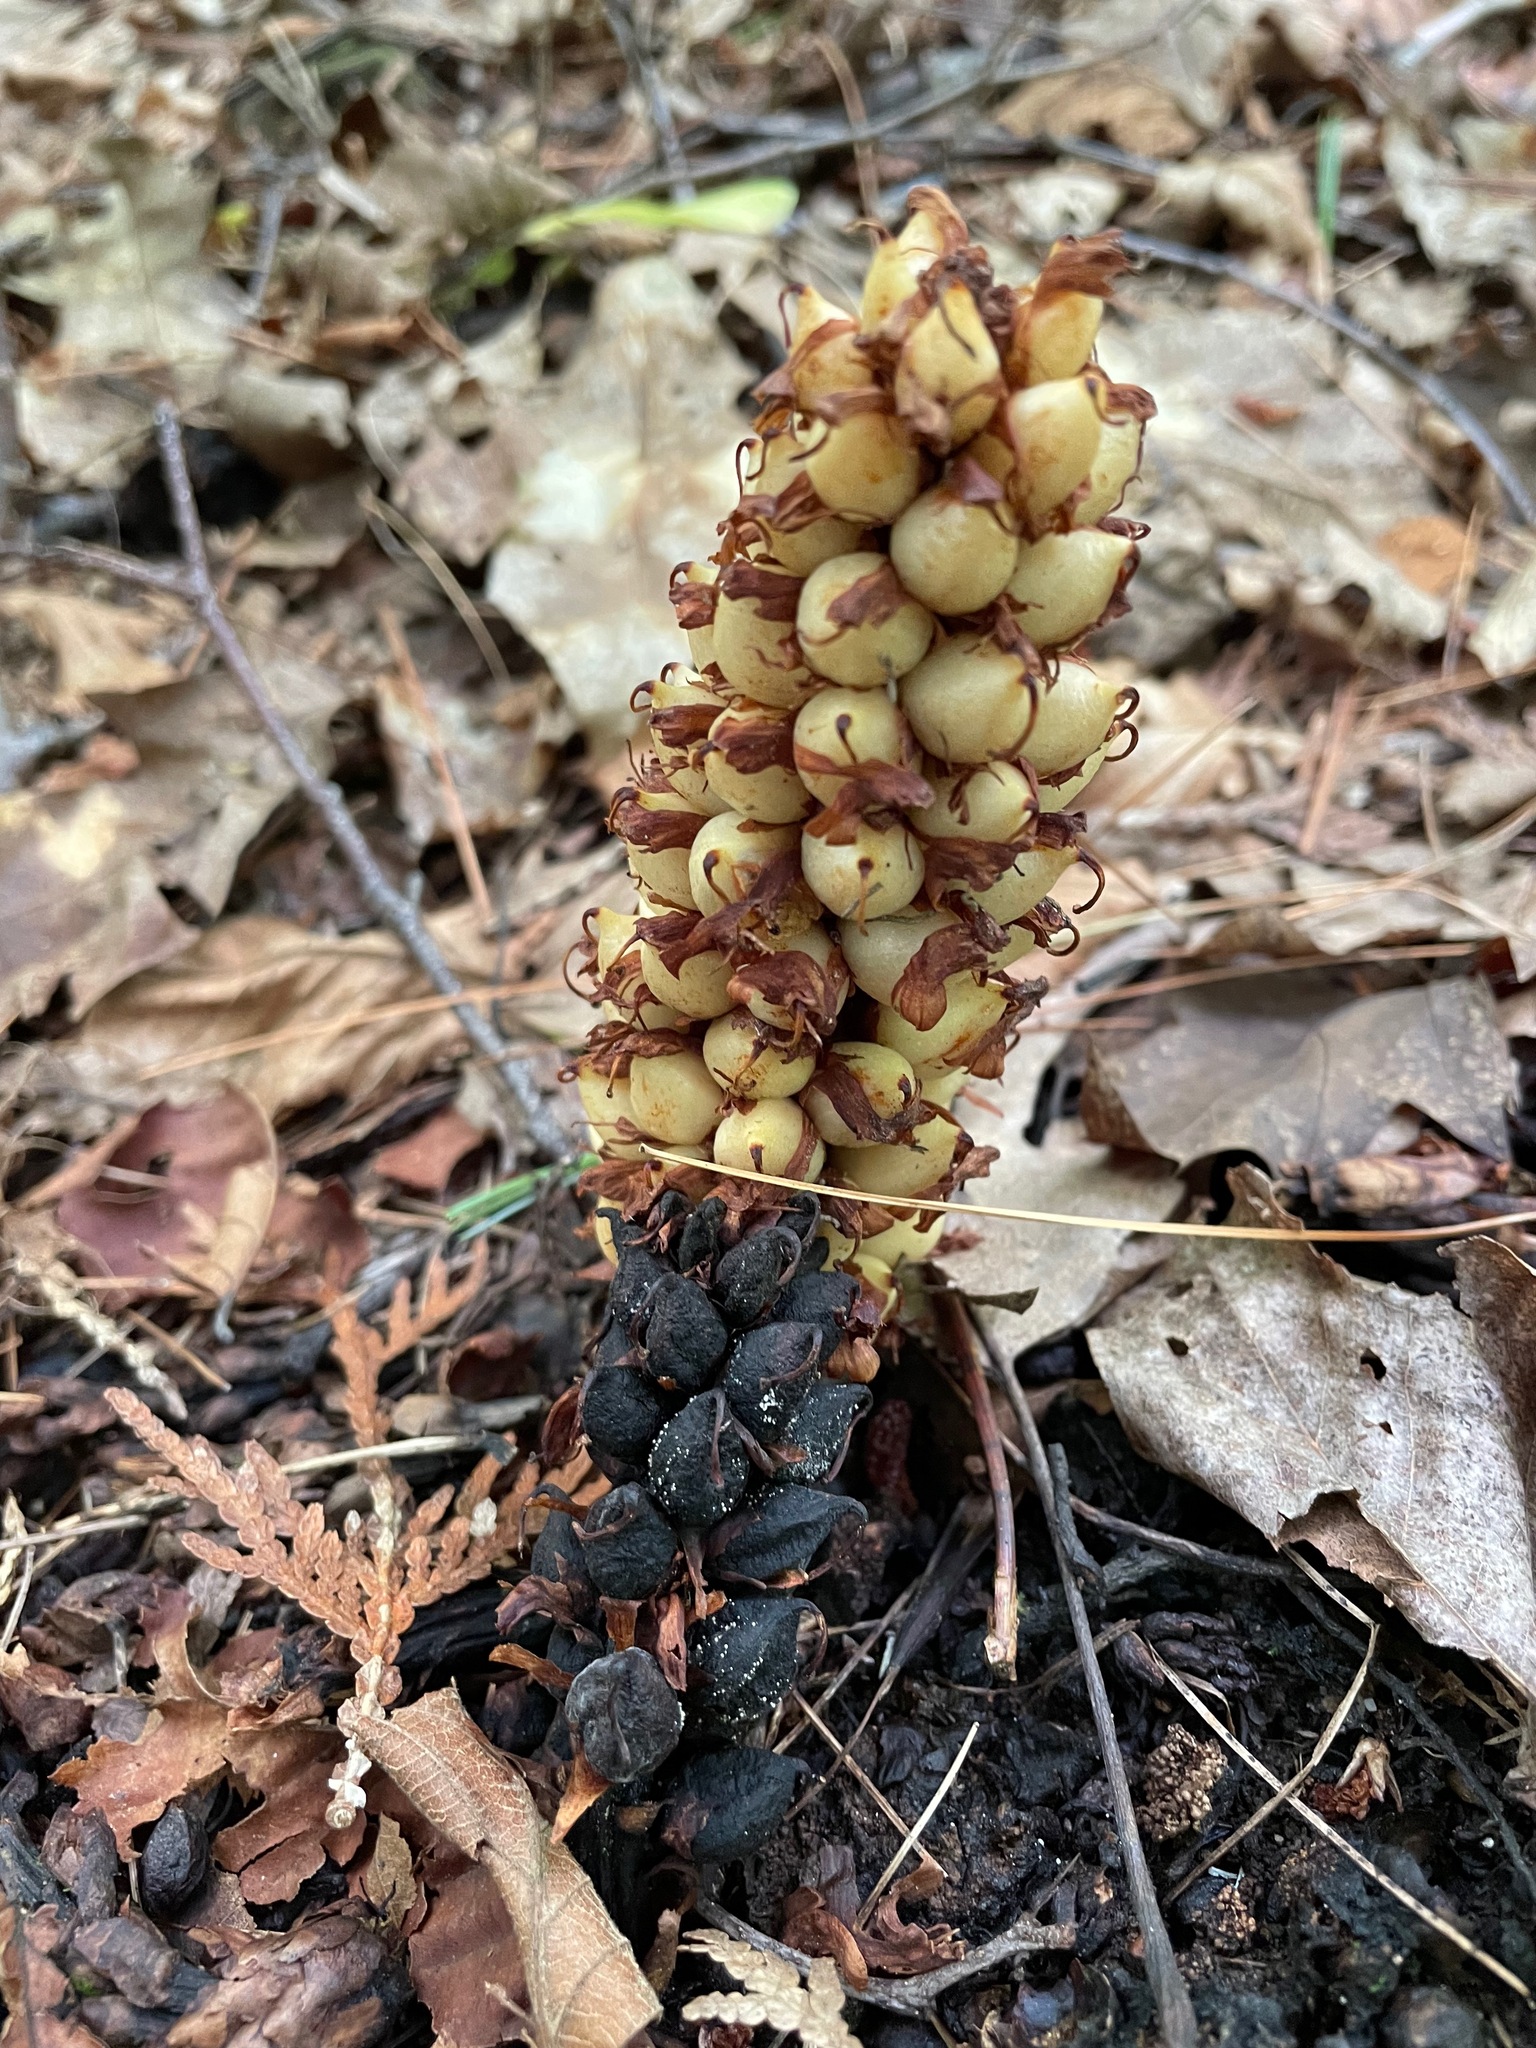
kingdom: Plantae
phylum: Tracheophyta
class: Magnoliopsida
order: Lamiales
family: Orobanchaceae
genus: Conopholis
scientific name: Conopholis americana
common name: American cancer-root
